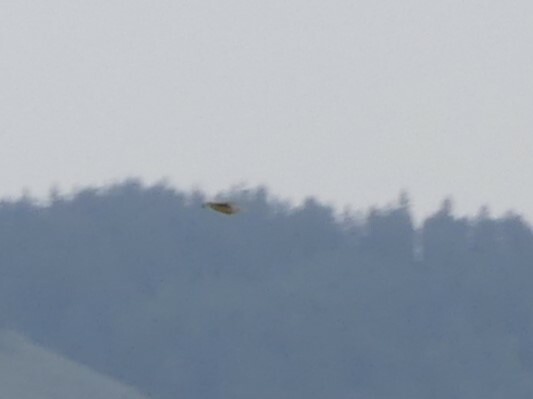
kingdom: Animalia
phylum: Chordata
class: Aves
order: Passeriformes
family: Icteridae
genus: Sturnella
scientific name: Sturnella neglecta
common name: Western meadowlark
